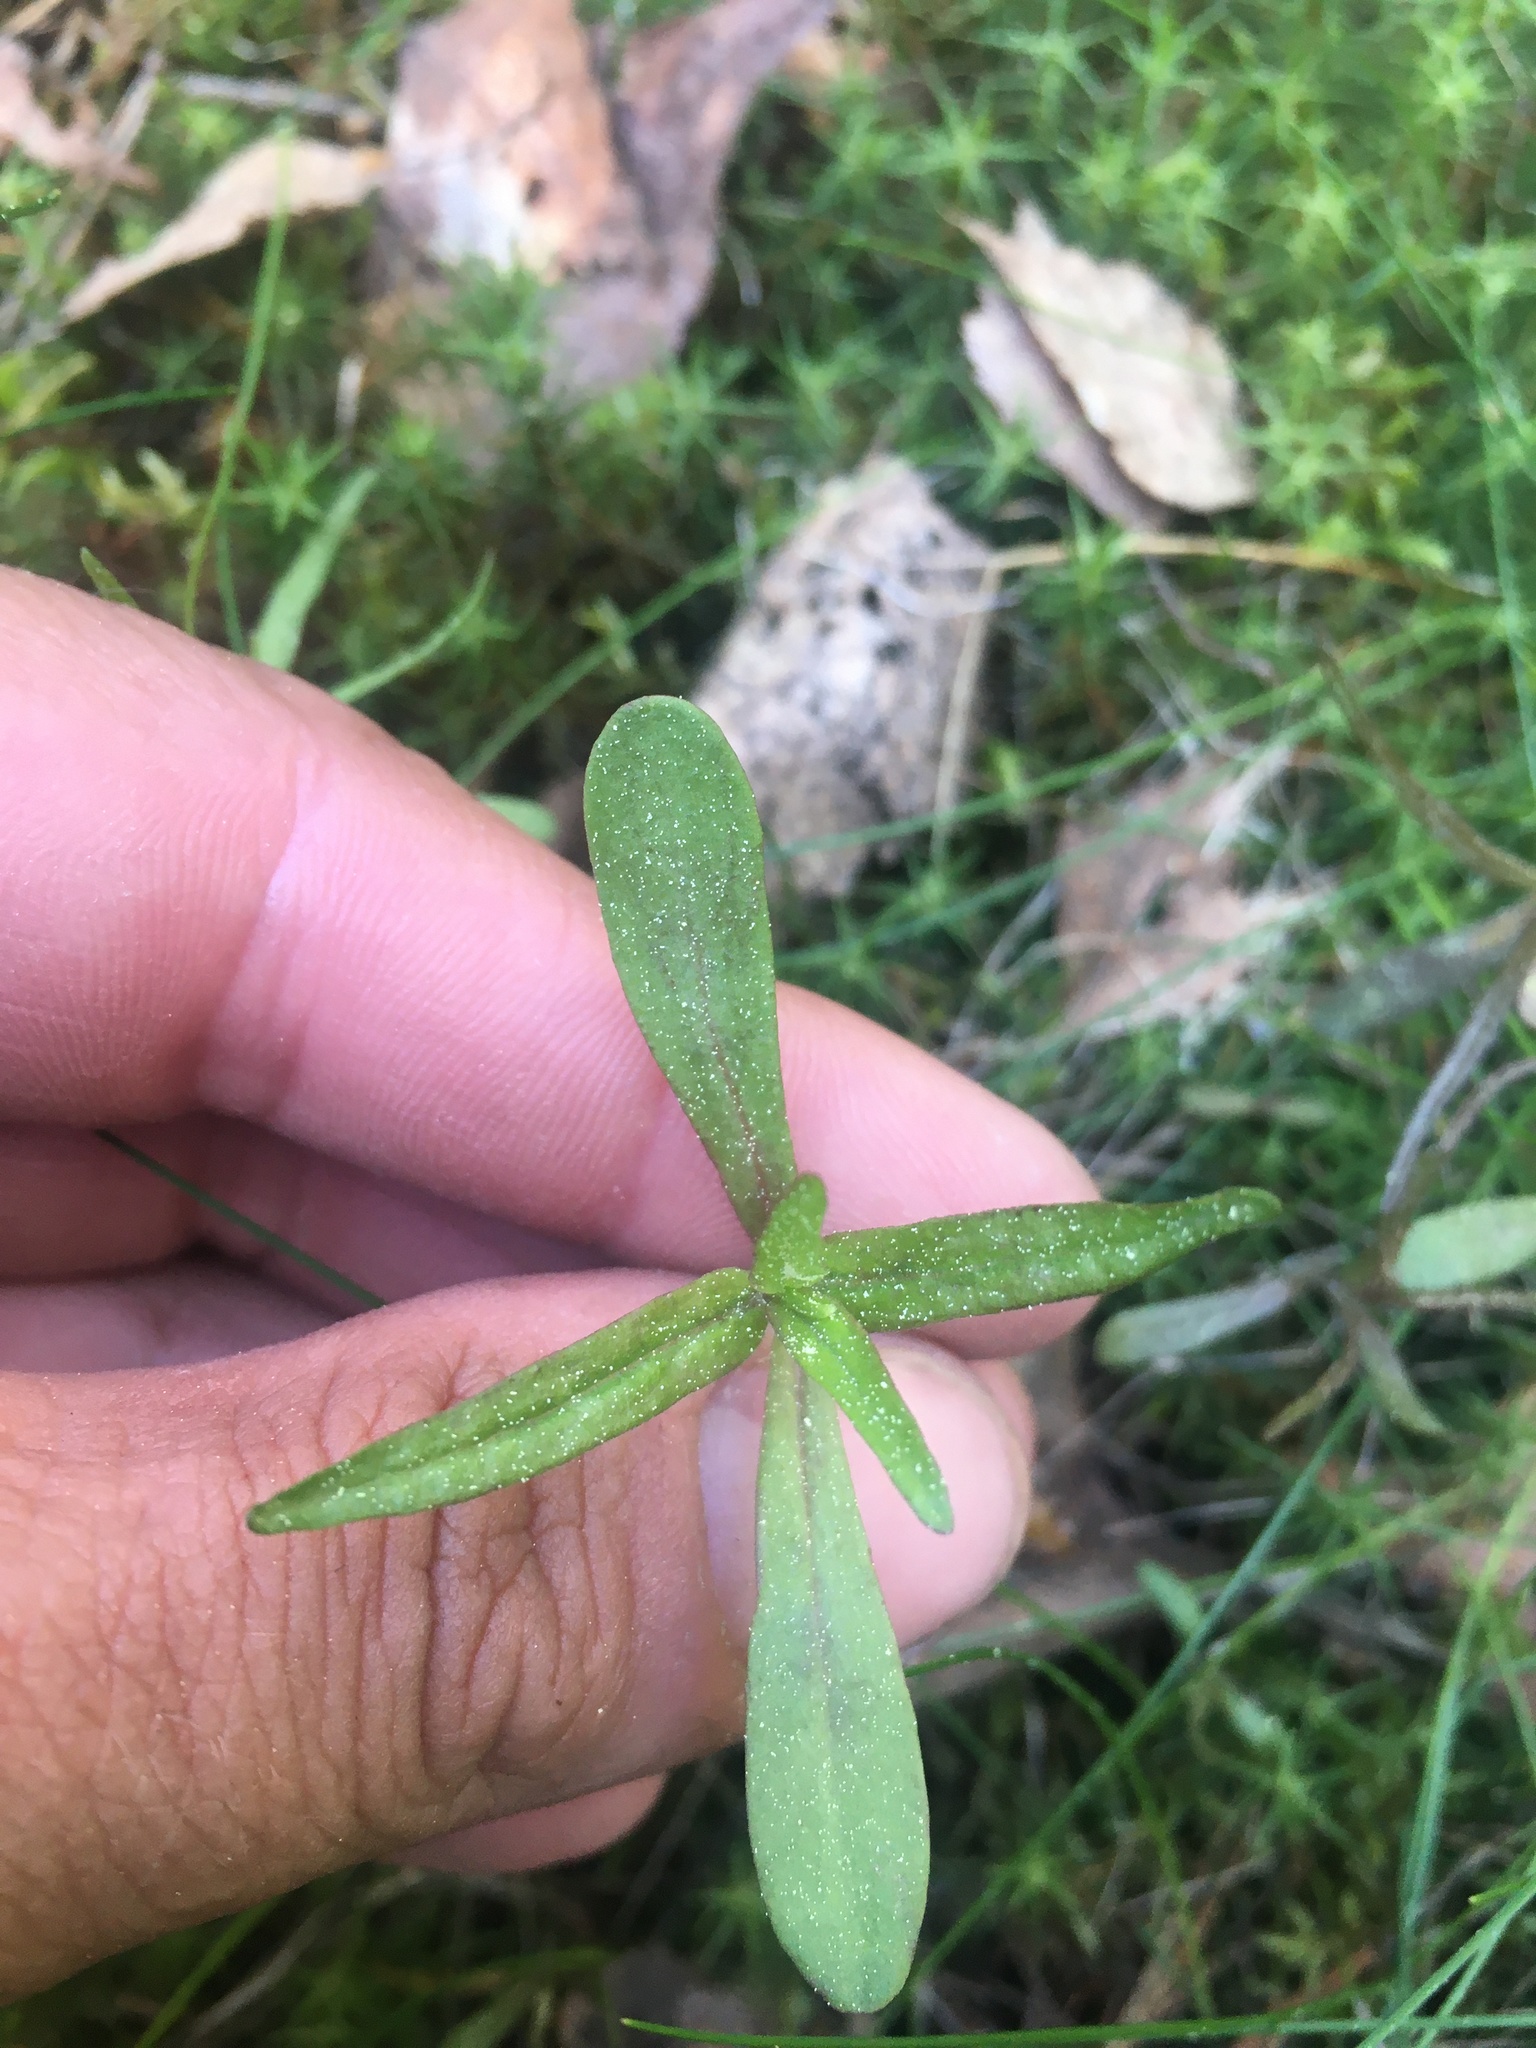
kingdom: Plantae
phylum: Tracheophyta
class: Magnoliopsida
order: Lamiales
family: Orobanchaceae
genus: Melampyrum
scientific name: Melampyrum
